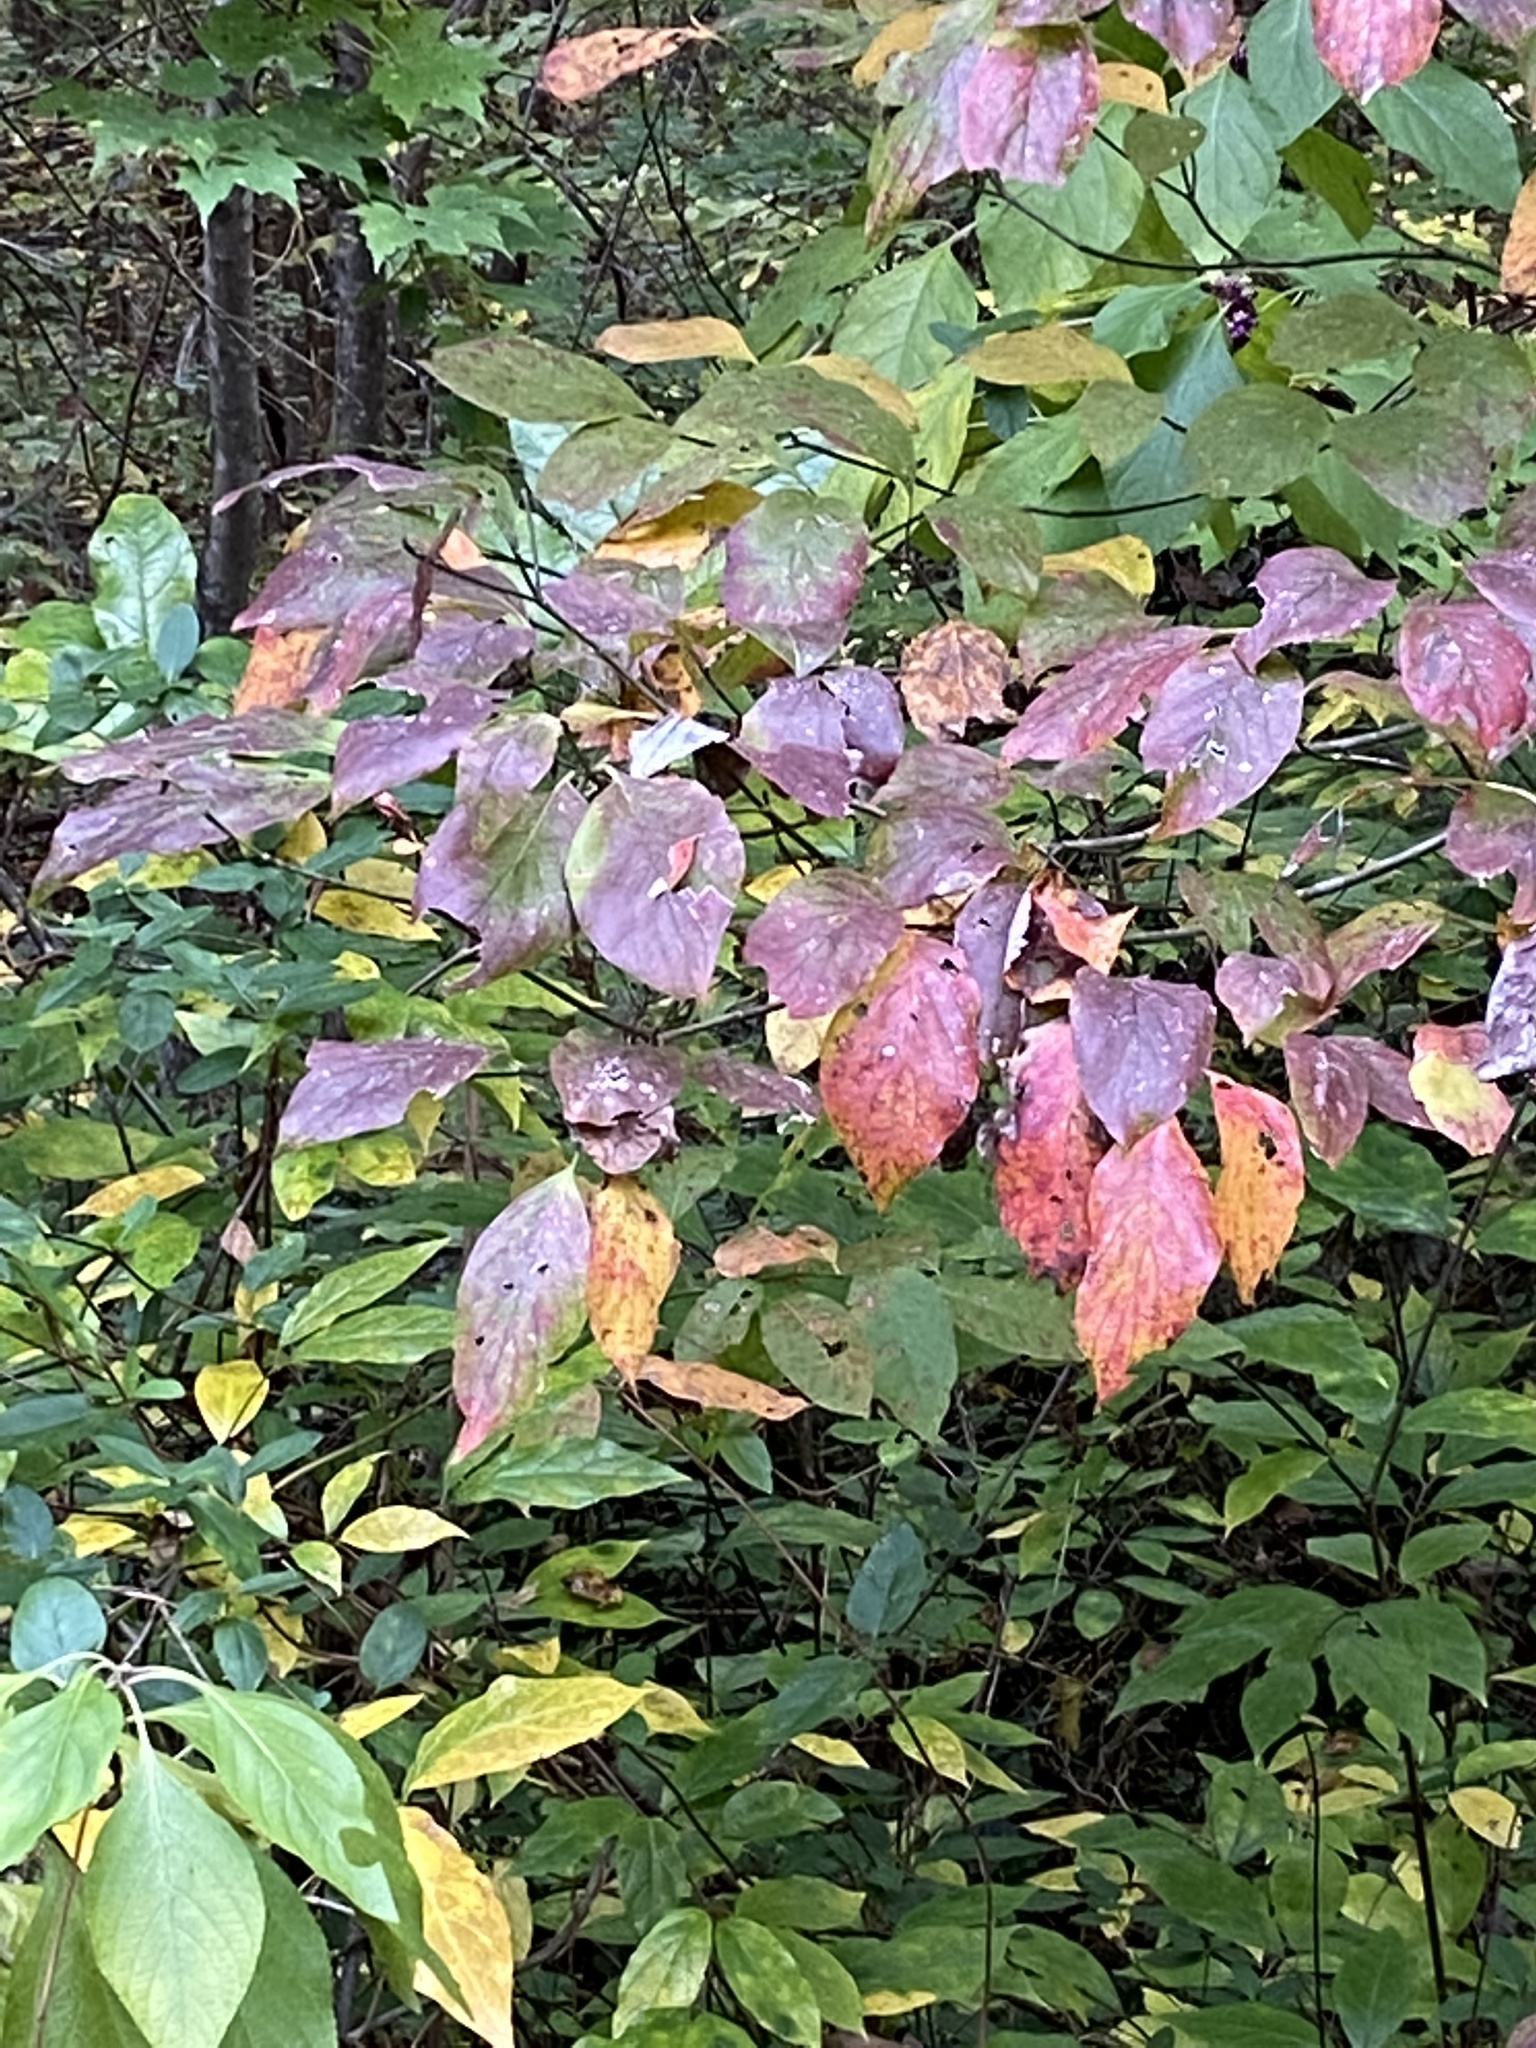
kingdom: Plantae
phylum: Tracheophyta
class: Magnoliopsida
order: Cornales
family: Cornaceae
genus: Cornus
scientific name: Cornus florida
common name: Flowering dogwood
